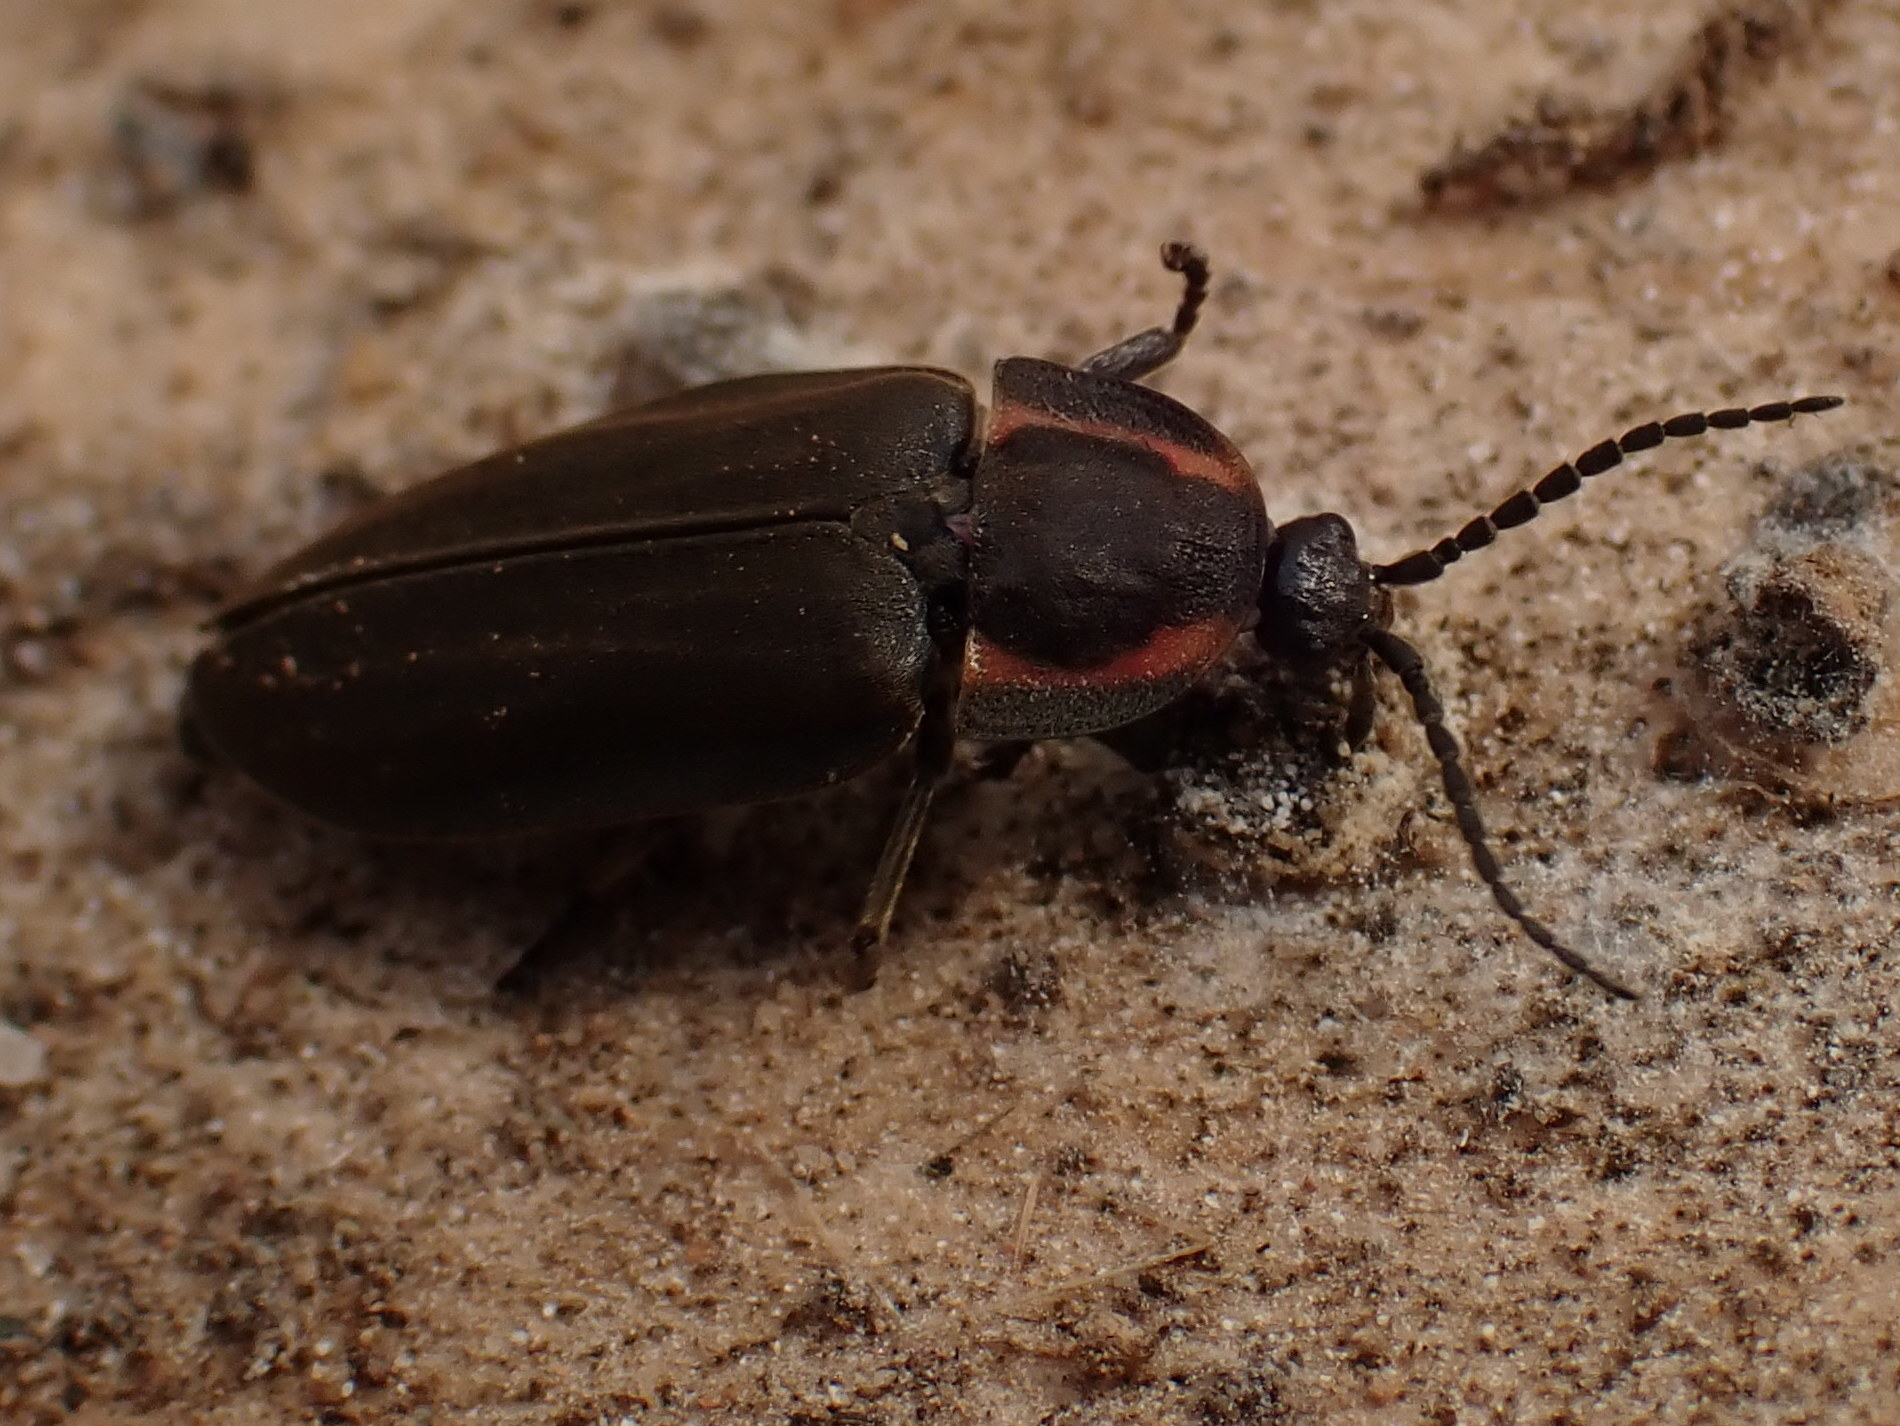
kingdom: Animalia
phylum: Arthropoda
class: Insecta
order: Coleoptera
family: Lampyridae
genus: Photinus
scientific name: Photinus corrusca
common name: Winter firefly
